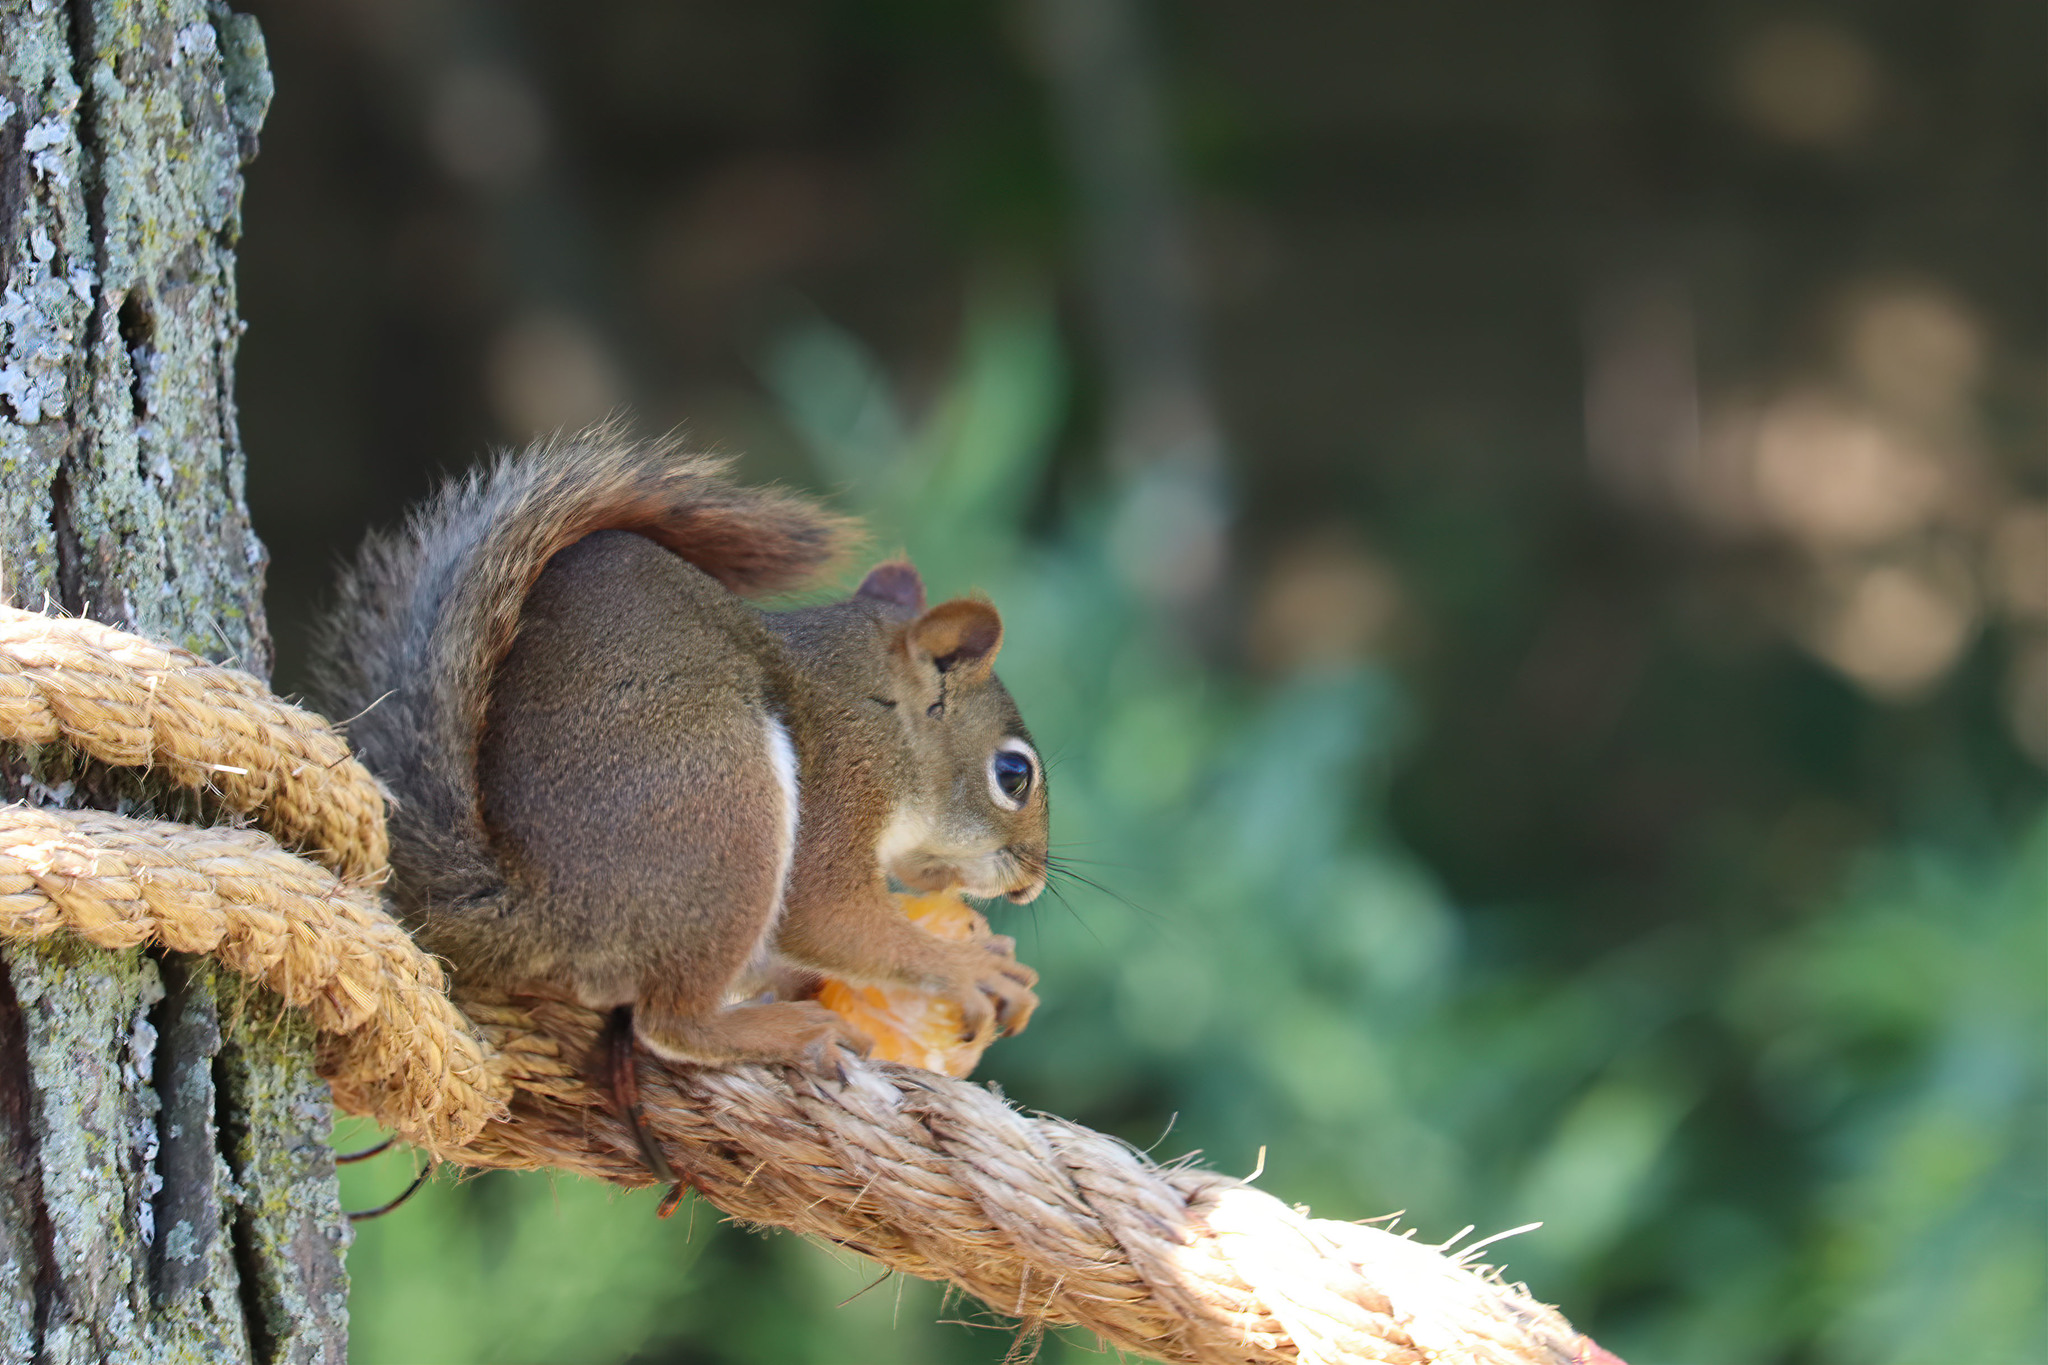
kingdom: Animalia
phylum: Chordata
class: Mammalia
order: Rodentia
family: Sciuridae
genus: Tamiasciurus
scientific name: Tamiasciurus hudsonicus
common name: Red squirrel
